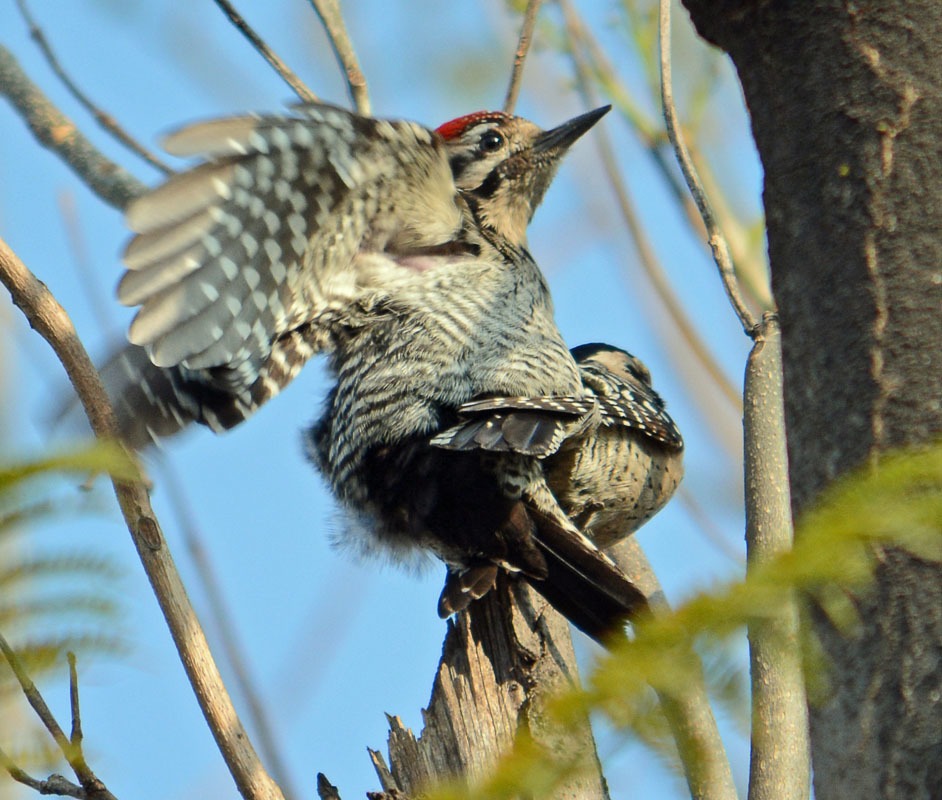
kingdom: Animalia
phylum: Chordata
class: Aves
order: Piciformes
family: Picidae
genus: Dryobates
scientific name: Dryobates scalaris
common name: Ladder-backed woodpecker
